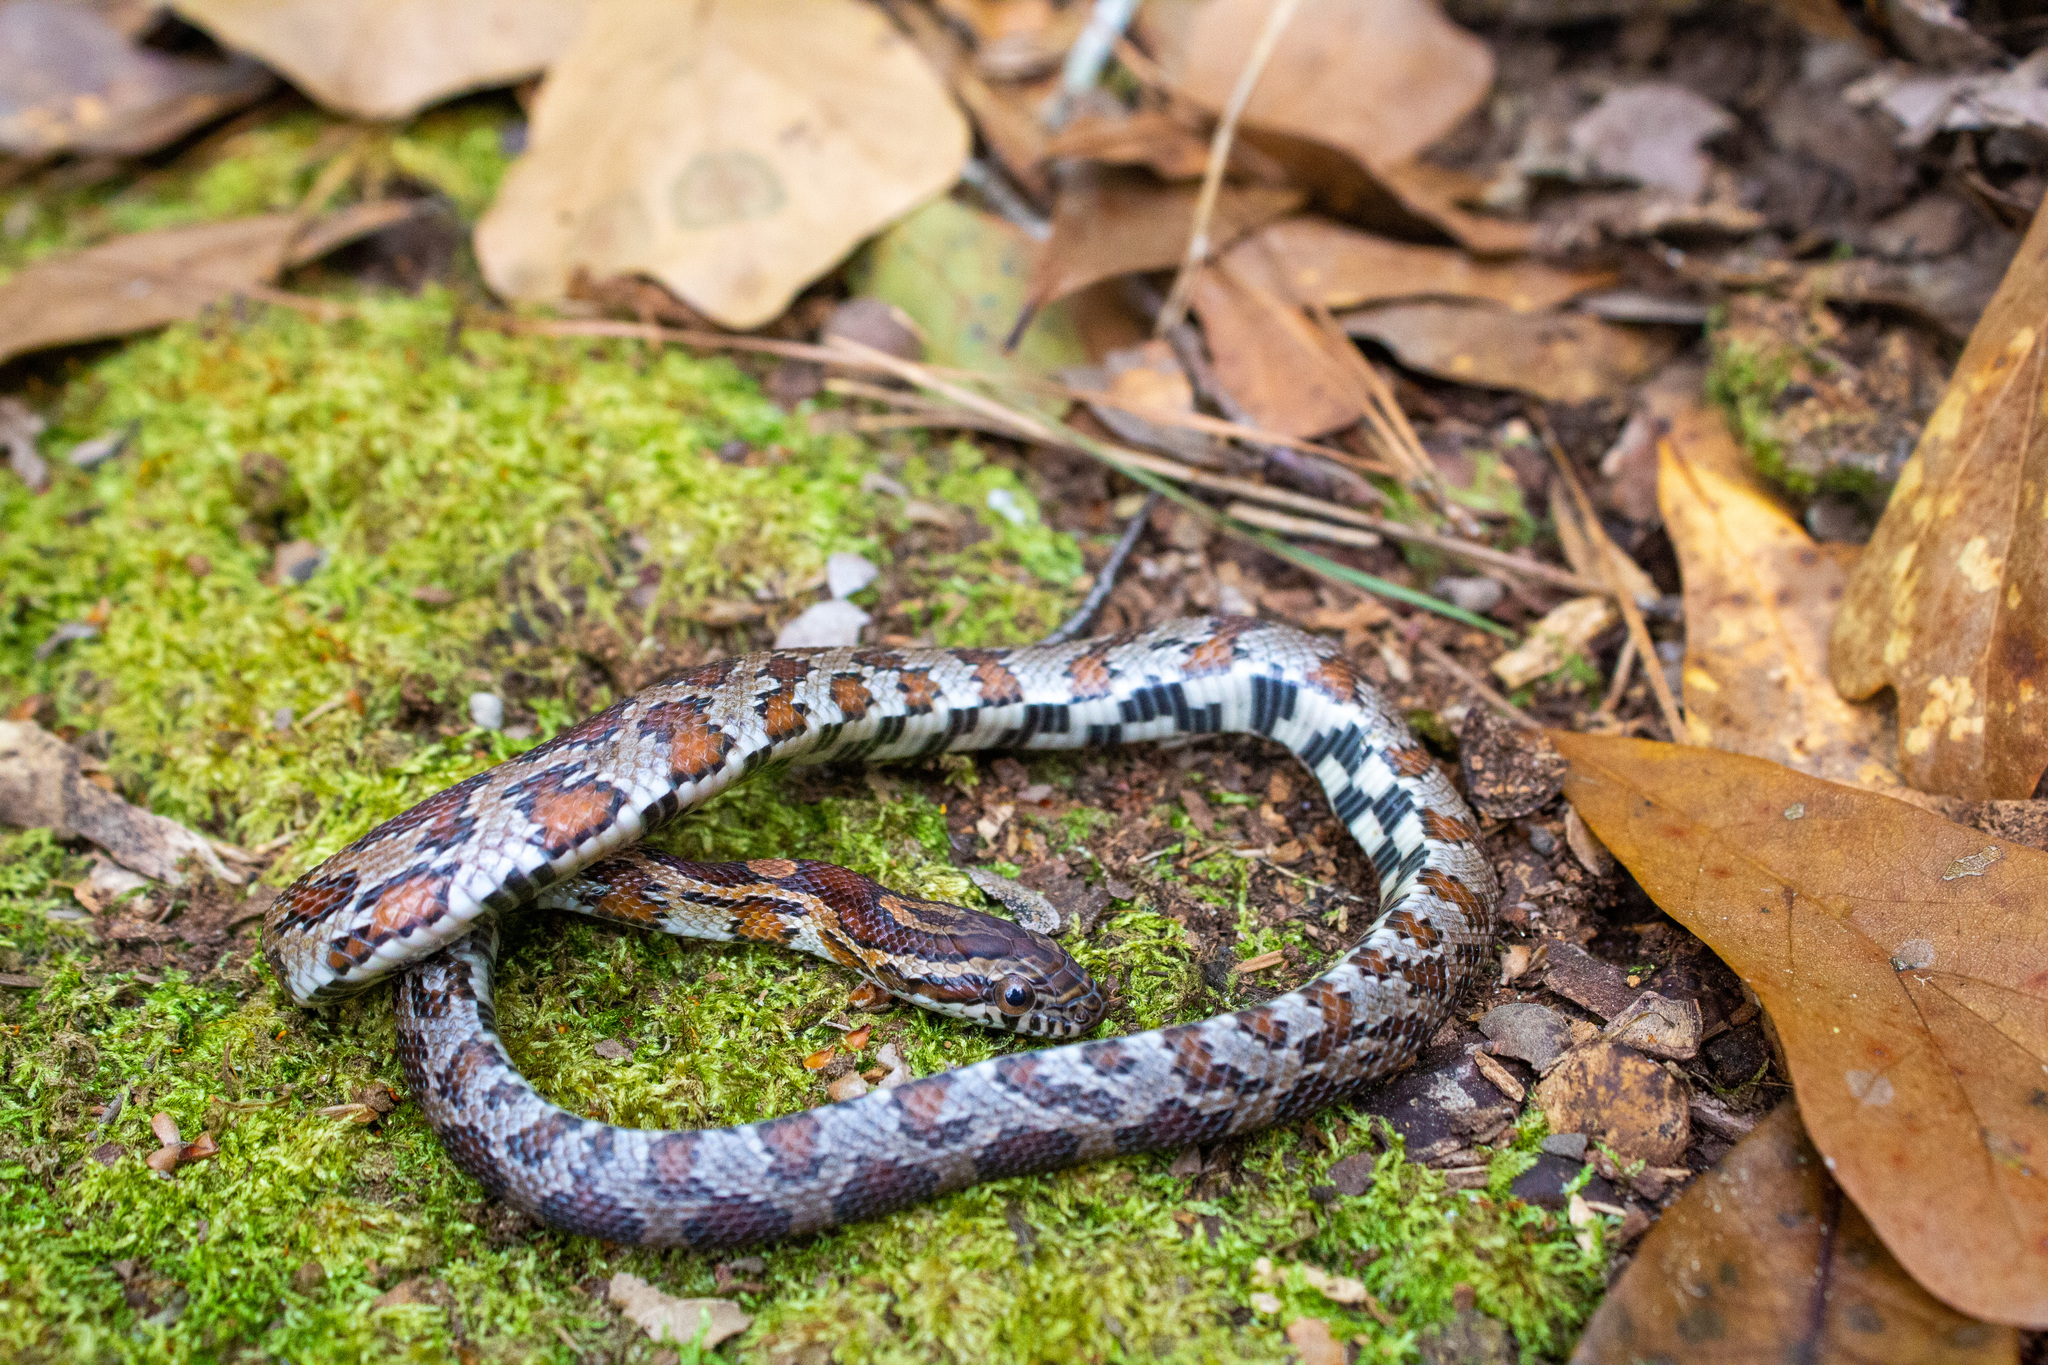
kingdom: Animalia
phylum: Chordata
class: Squamata
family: Colubridae
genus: Pantherophis
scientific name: Pantherophis guttatus
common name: Red cornsnake
